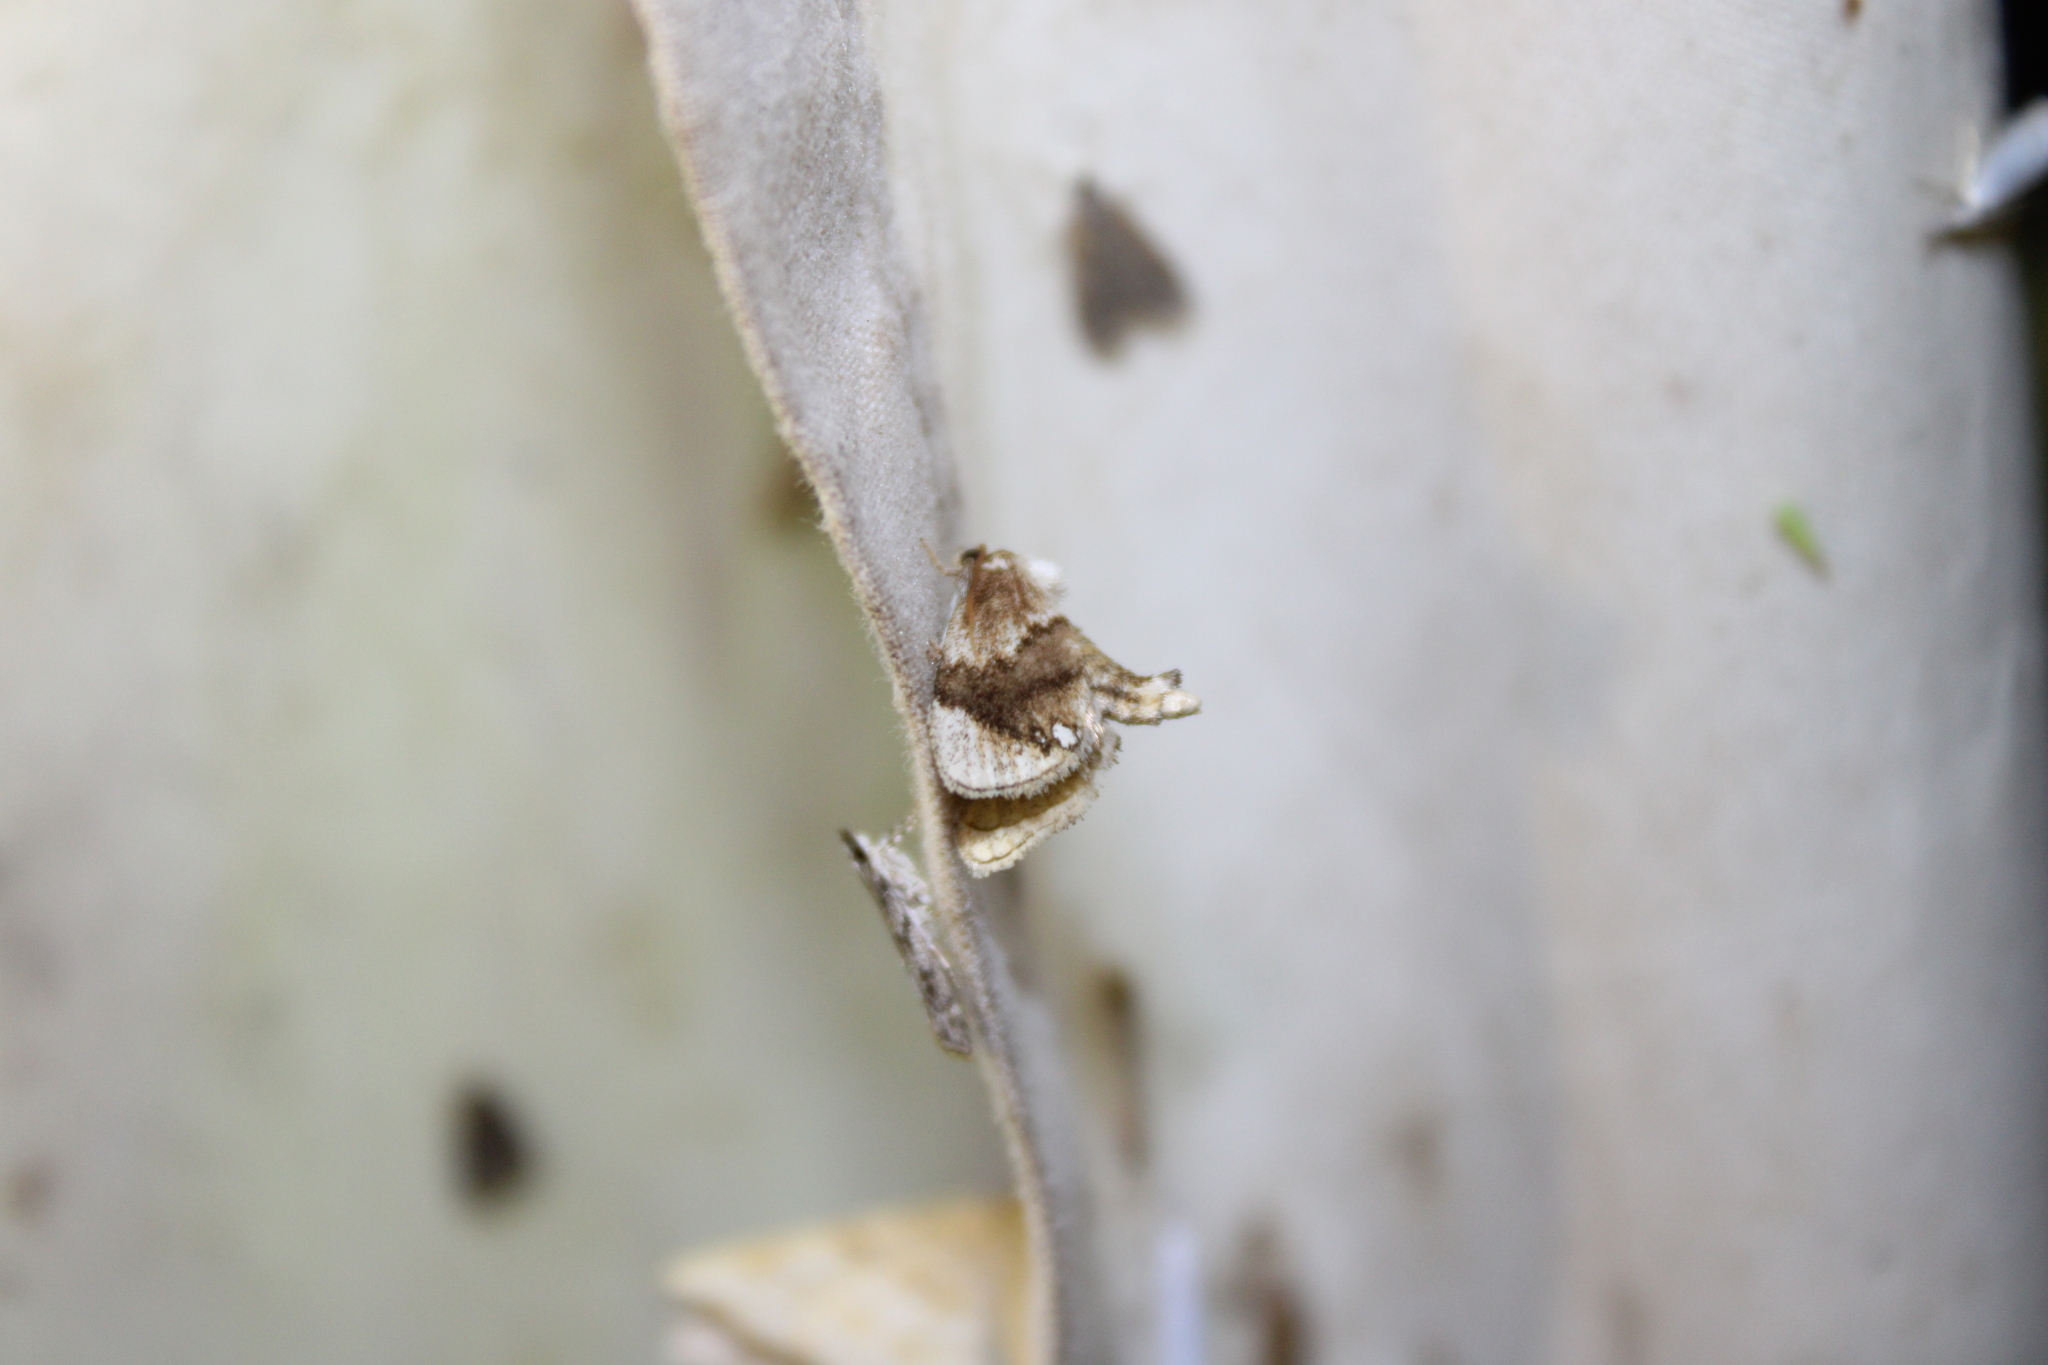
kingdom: Animalia
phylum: Arthropoda
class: Insecta
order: Lepidoptera
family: Limacodidae
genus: Packardia
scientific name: Packardia geminata
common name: Jeweled tailed slug moth
